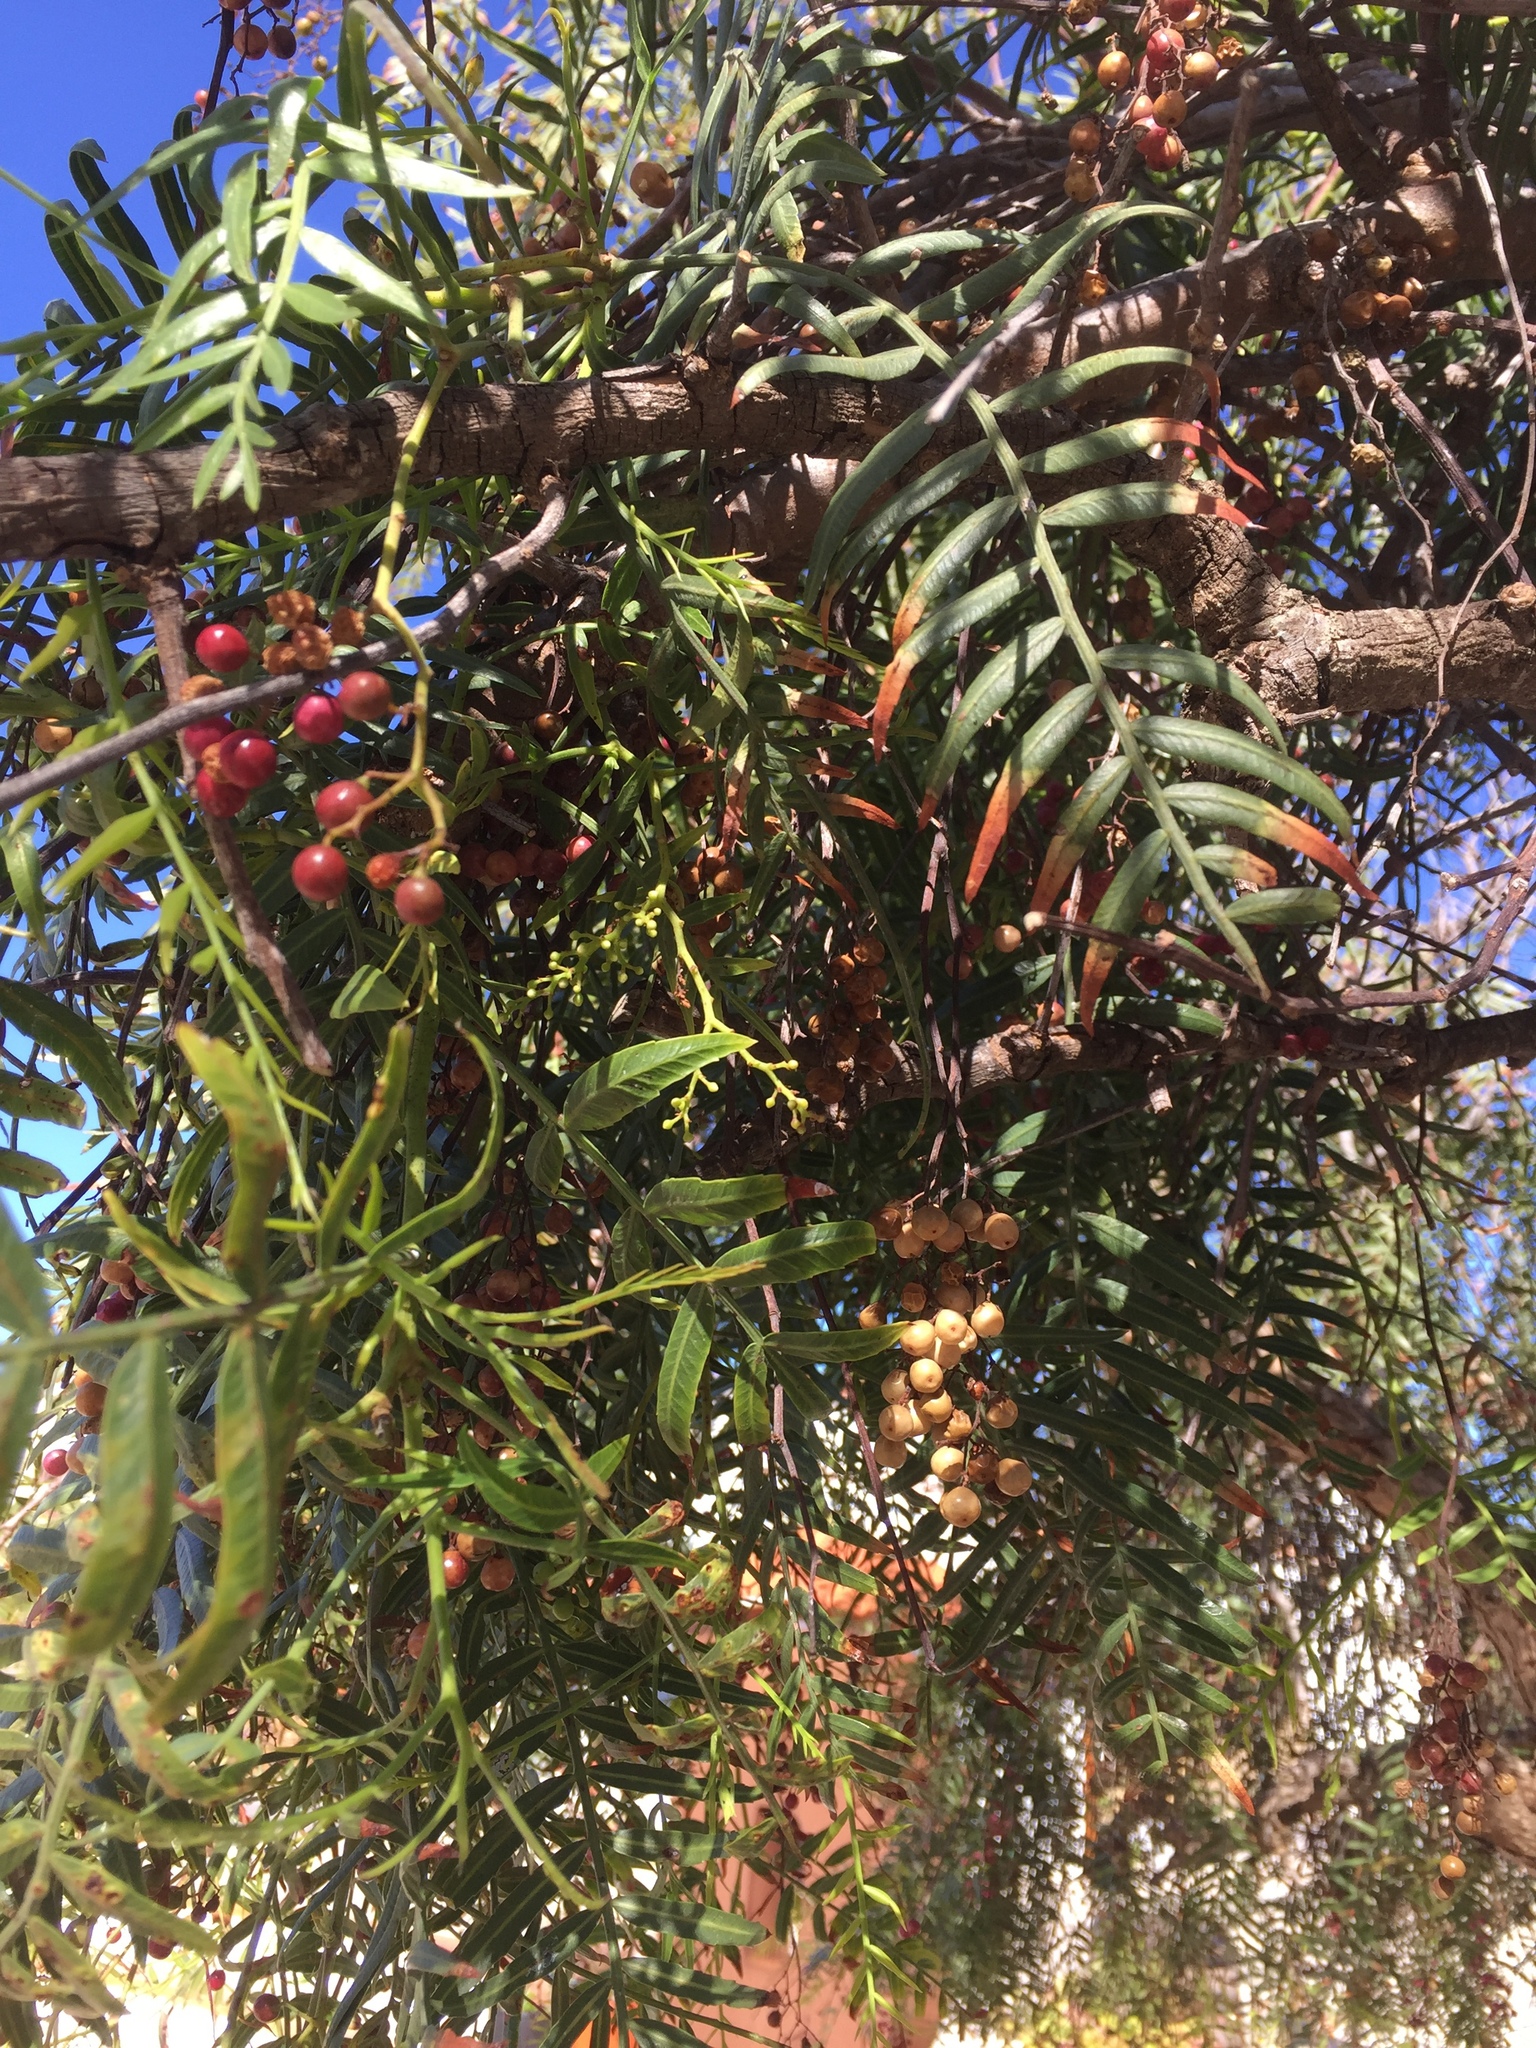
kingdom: Plantae
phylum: Tracheophyta
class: Magnoliopsida
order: Sapindales
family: Anacardiaceae
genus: Schinus
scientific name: Schinus molle
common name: Peruvian peppertree
